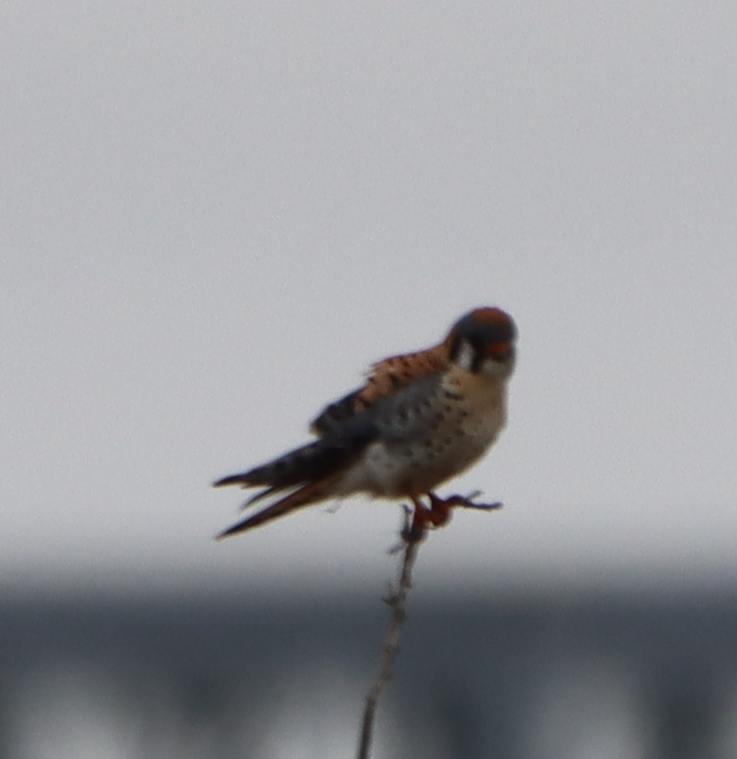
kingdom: Animalia
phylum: Chordata
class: Aves
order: Falconiformes
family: Falconidae
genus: Falco
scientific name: Falco sparverius
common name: American kestrel
